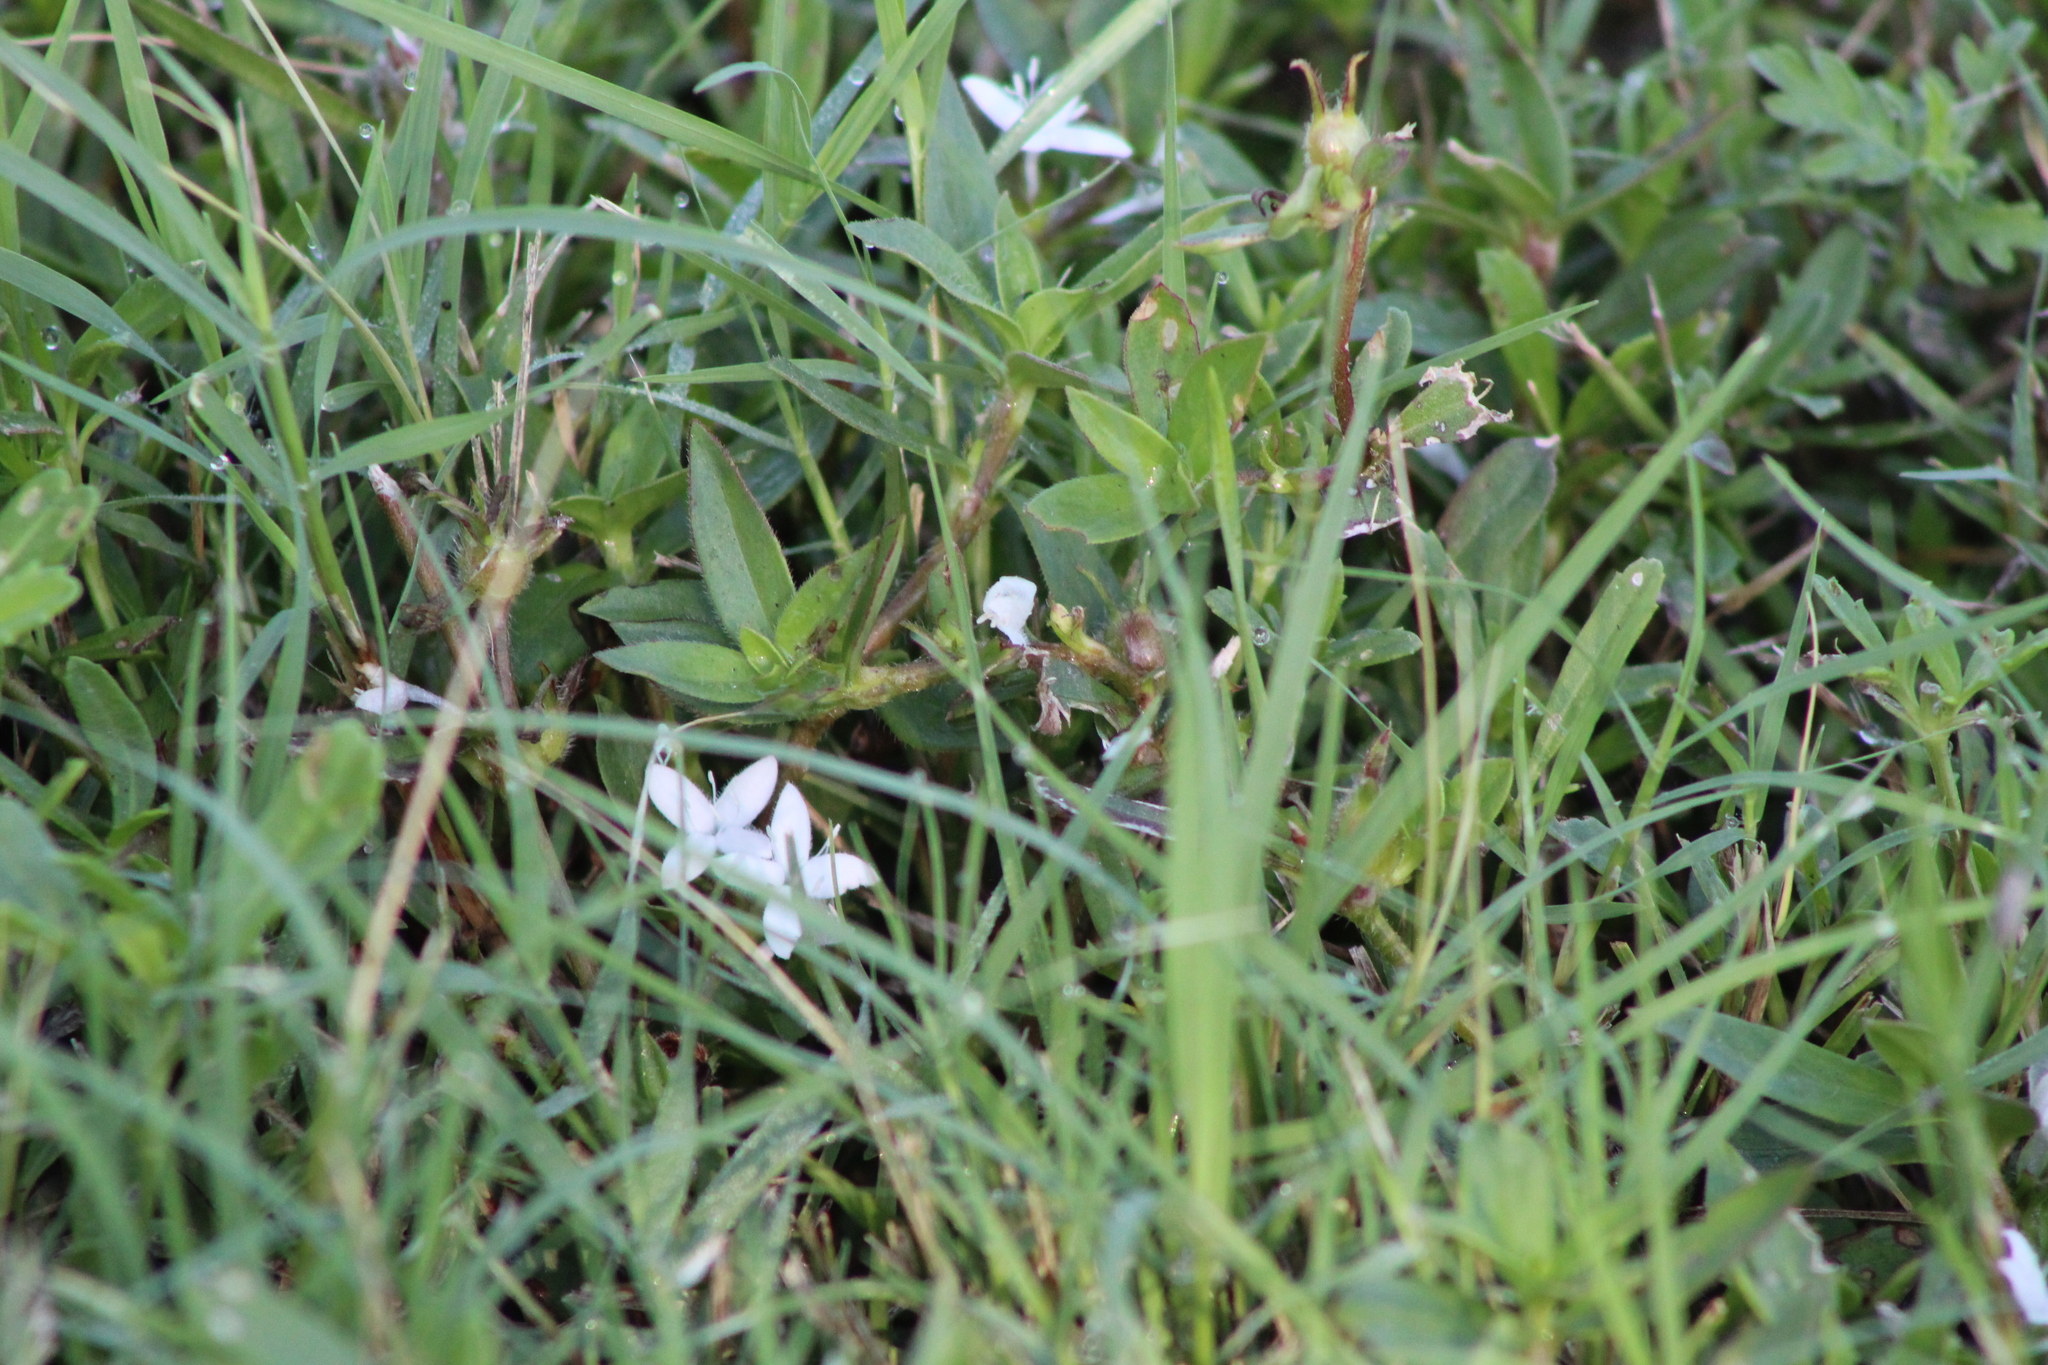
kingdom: Plantae
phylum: Tracheophyta
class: Magnoliopsida
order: Gentianales
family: Rubiaceae
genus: Diodia
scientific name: Diodia virginiana
